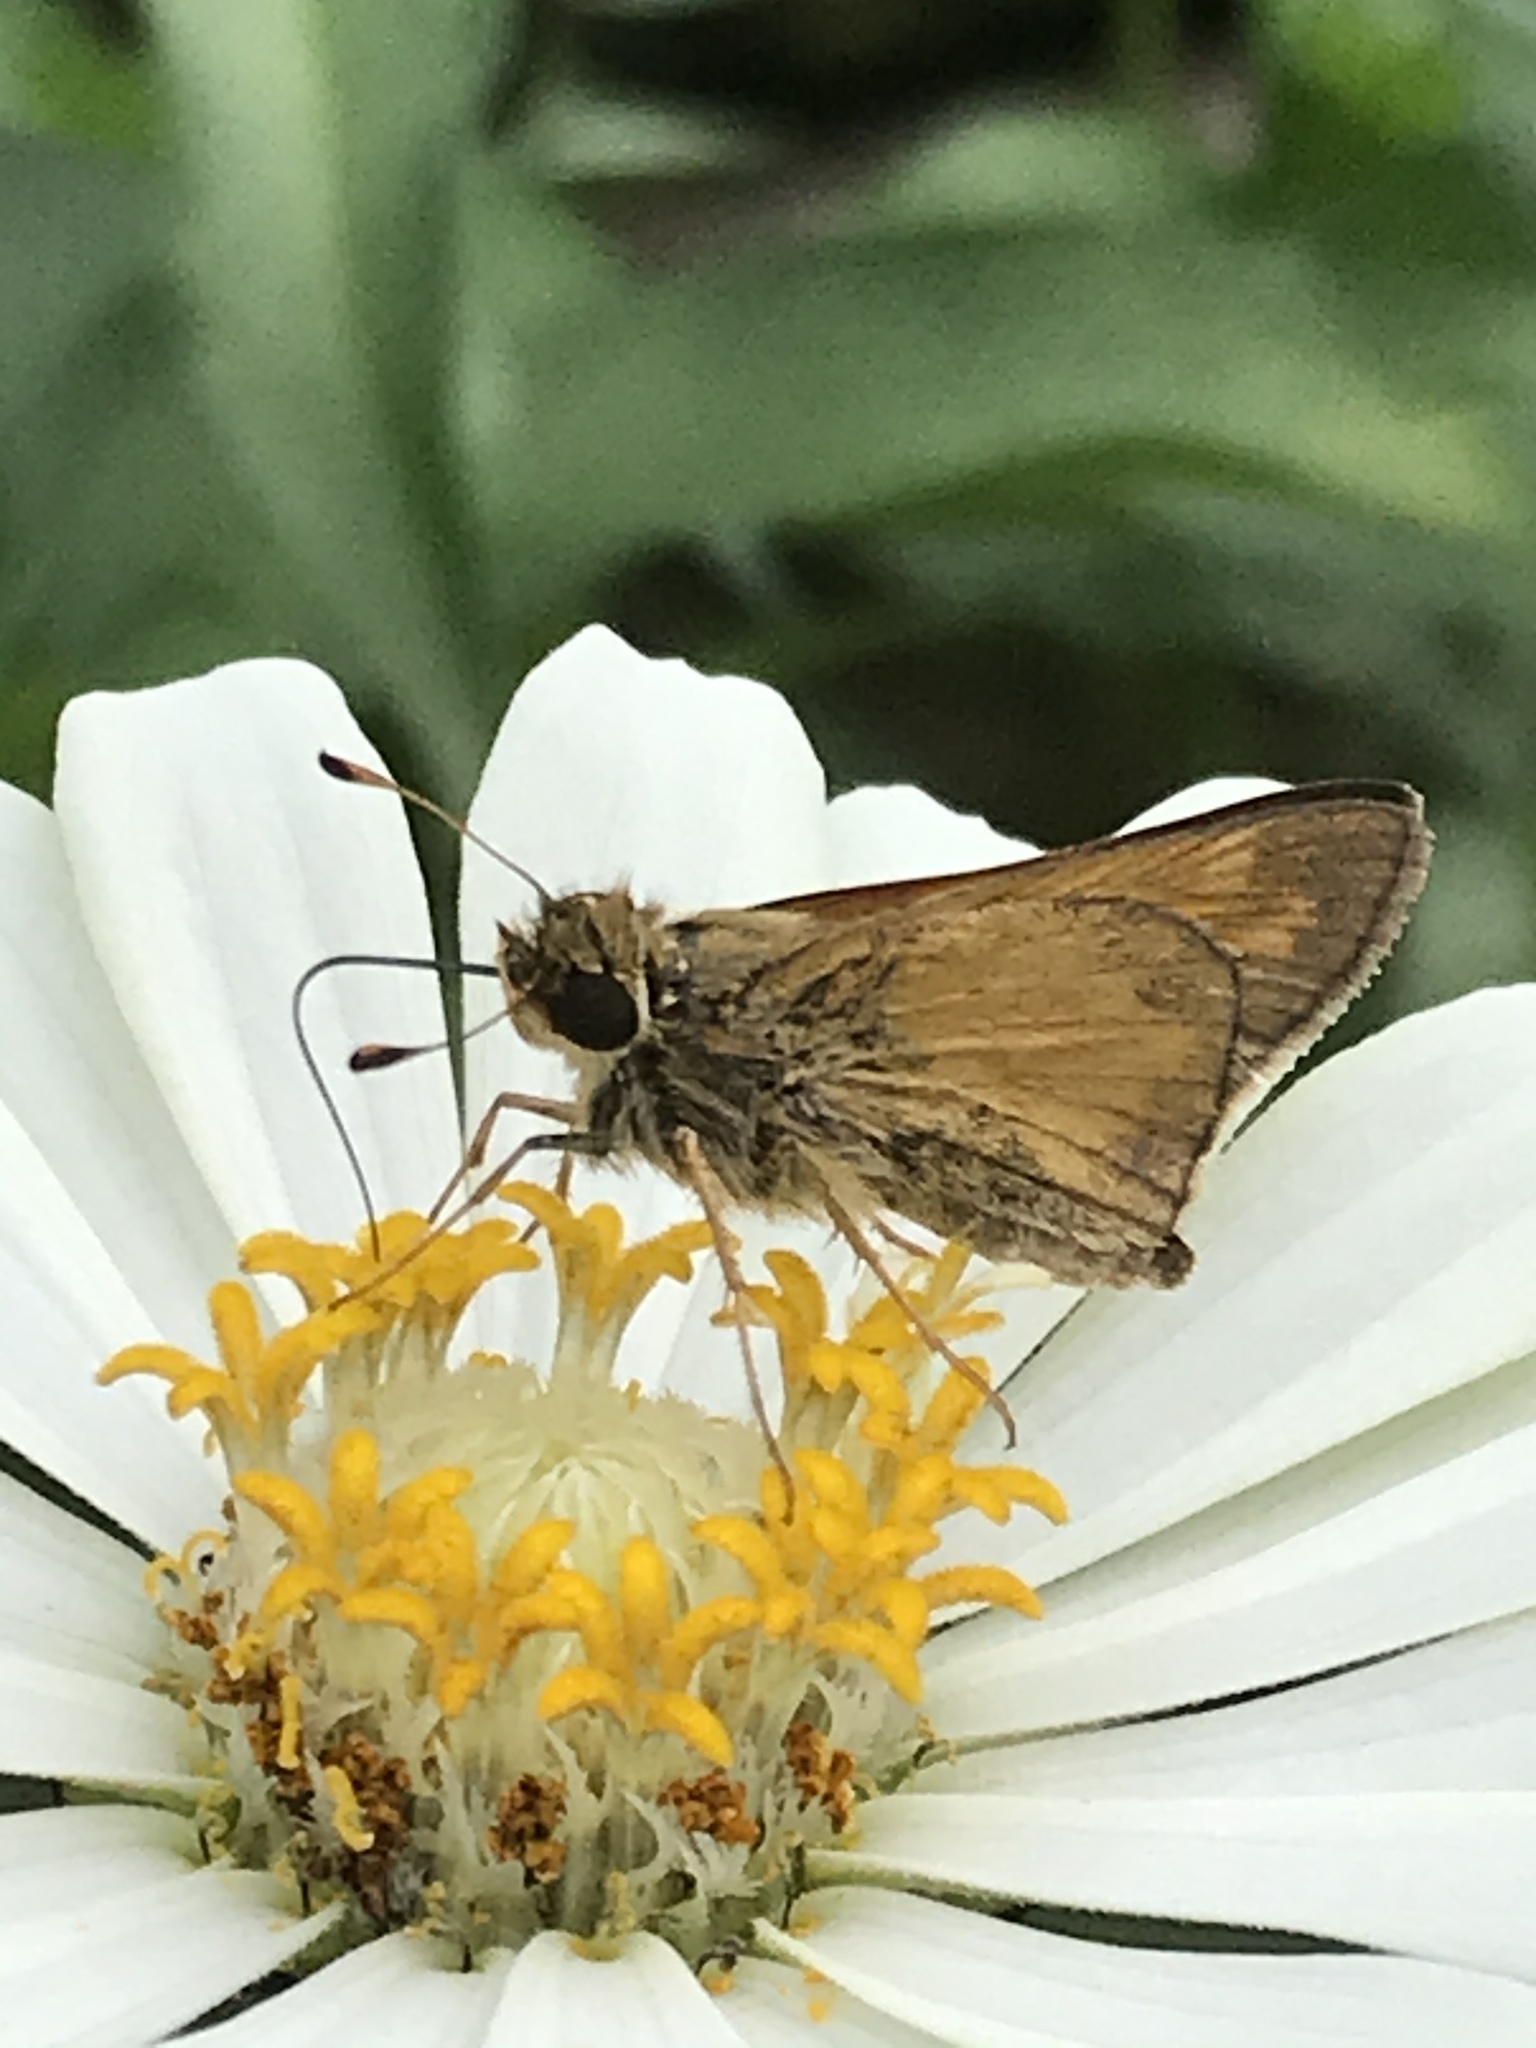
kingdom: Animalia
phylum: Arthropoda
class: Insecta
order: Lepidoptera
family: Hesperiidae
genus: Atalopedes
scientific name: Atalopedes
